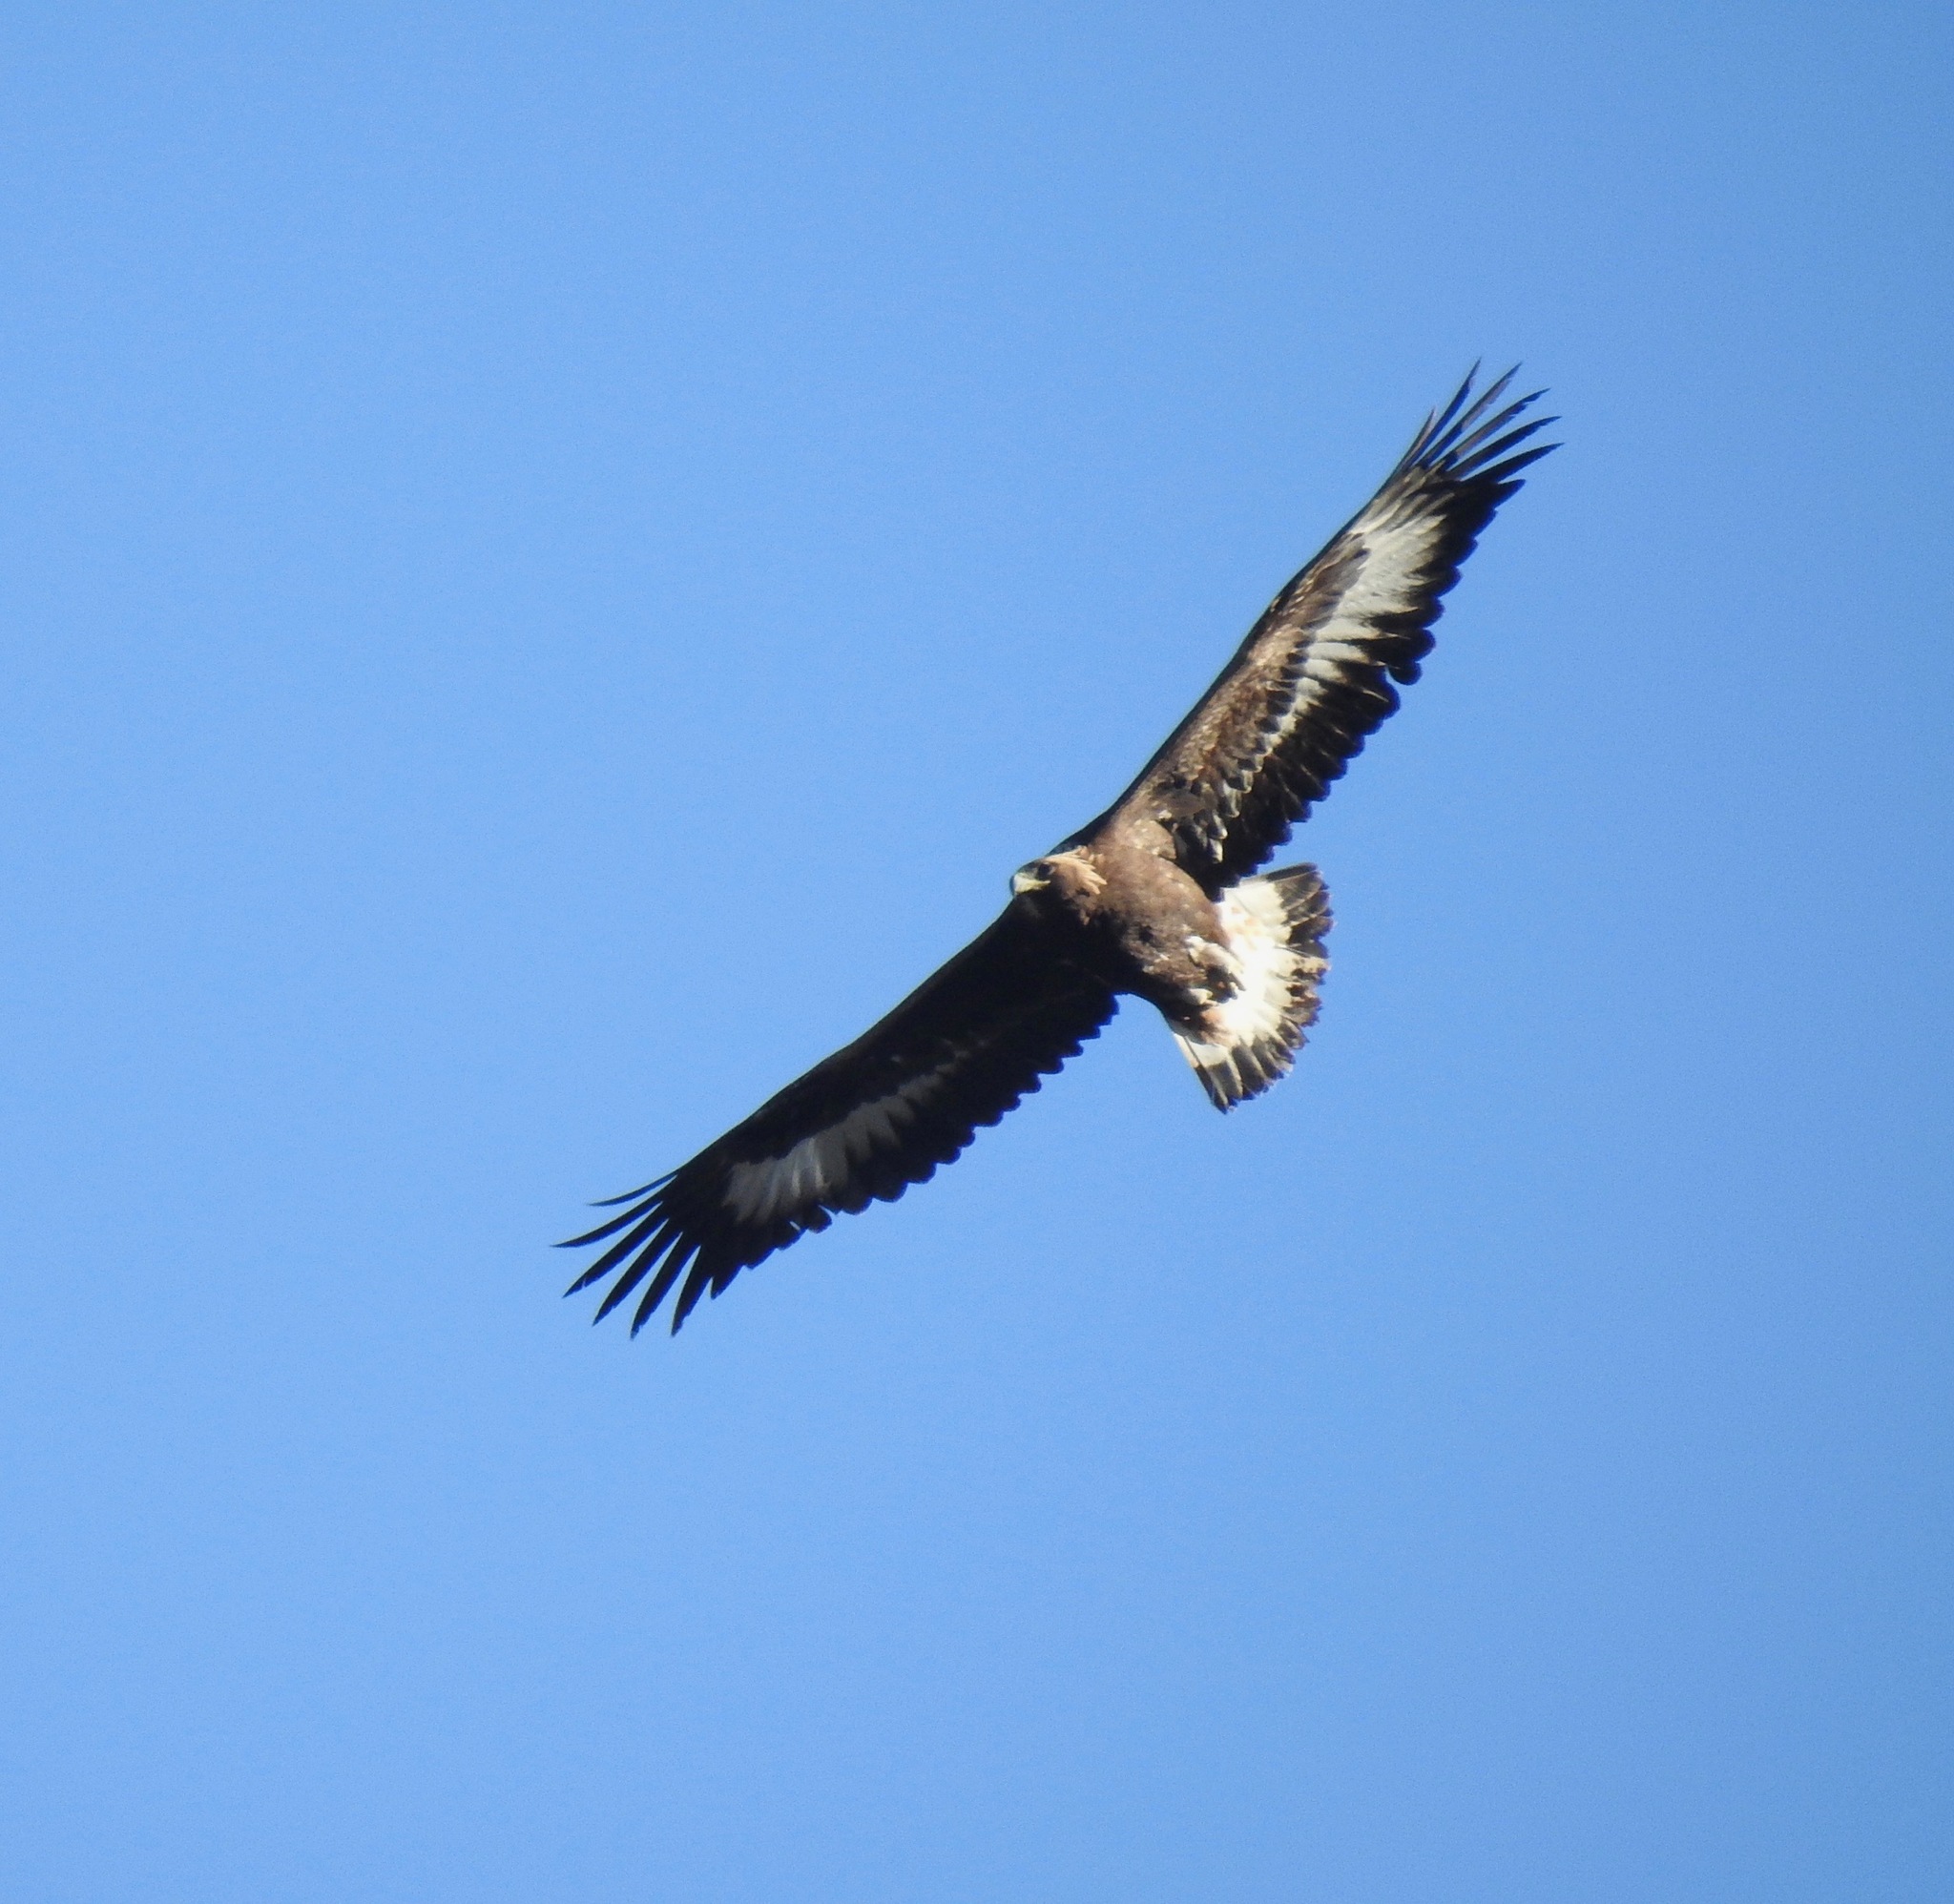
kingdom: Animalia
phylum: Chordata
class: Aves
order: Accipitriformes
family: Accipitridae
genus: Aquila
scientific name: Aquila chrysaetos
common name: Golden eagle
